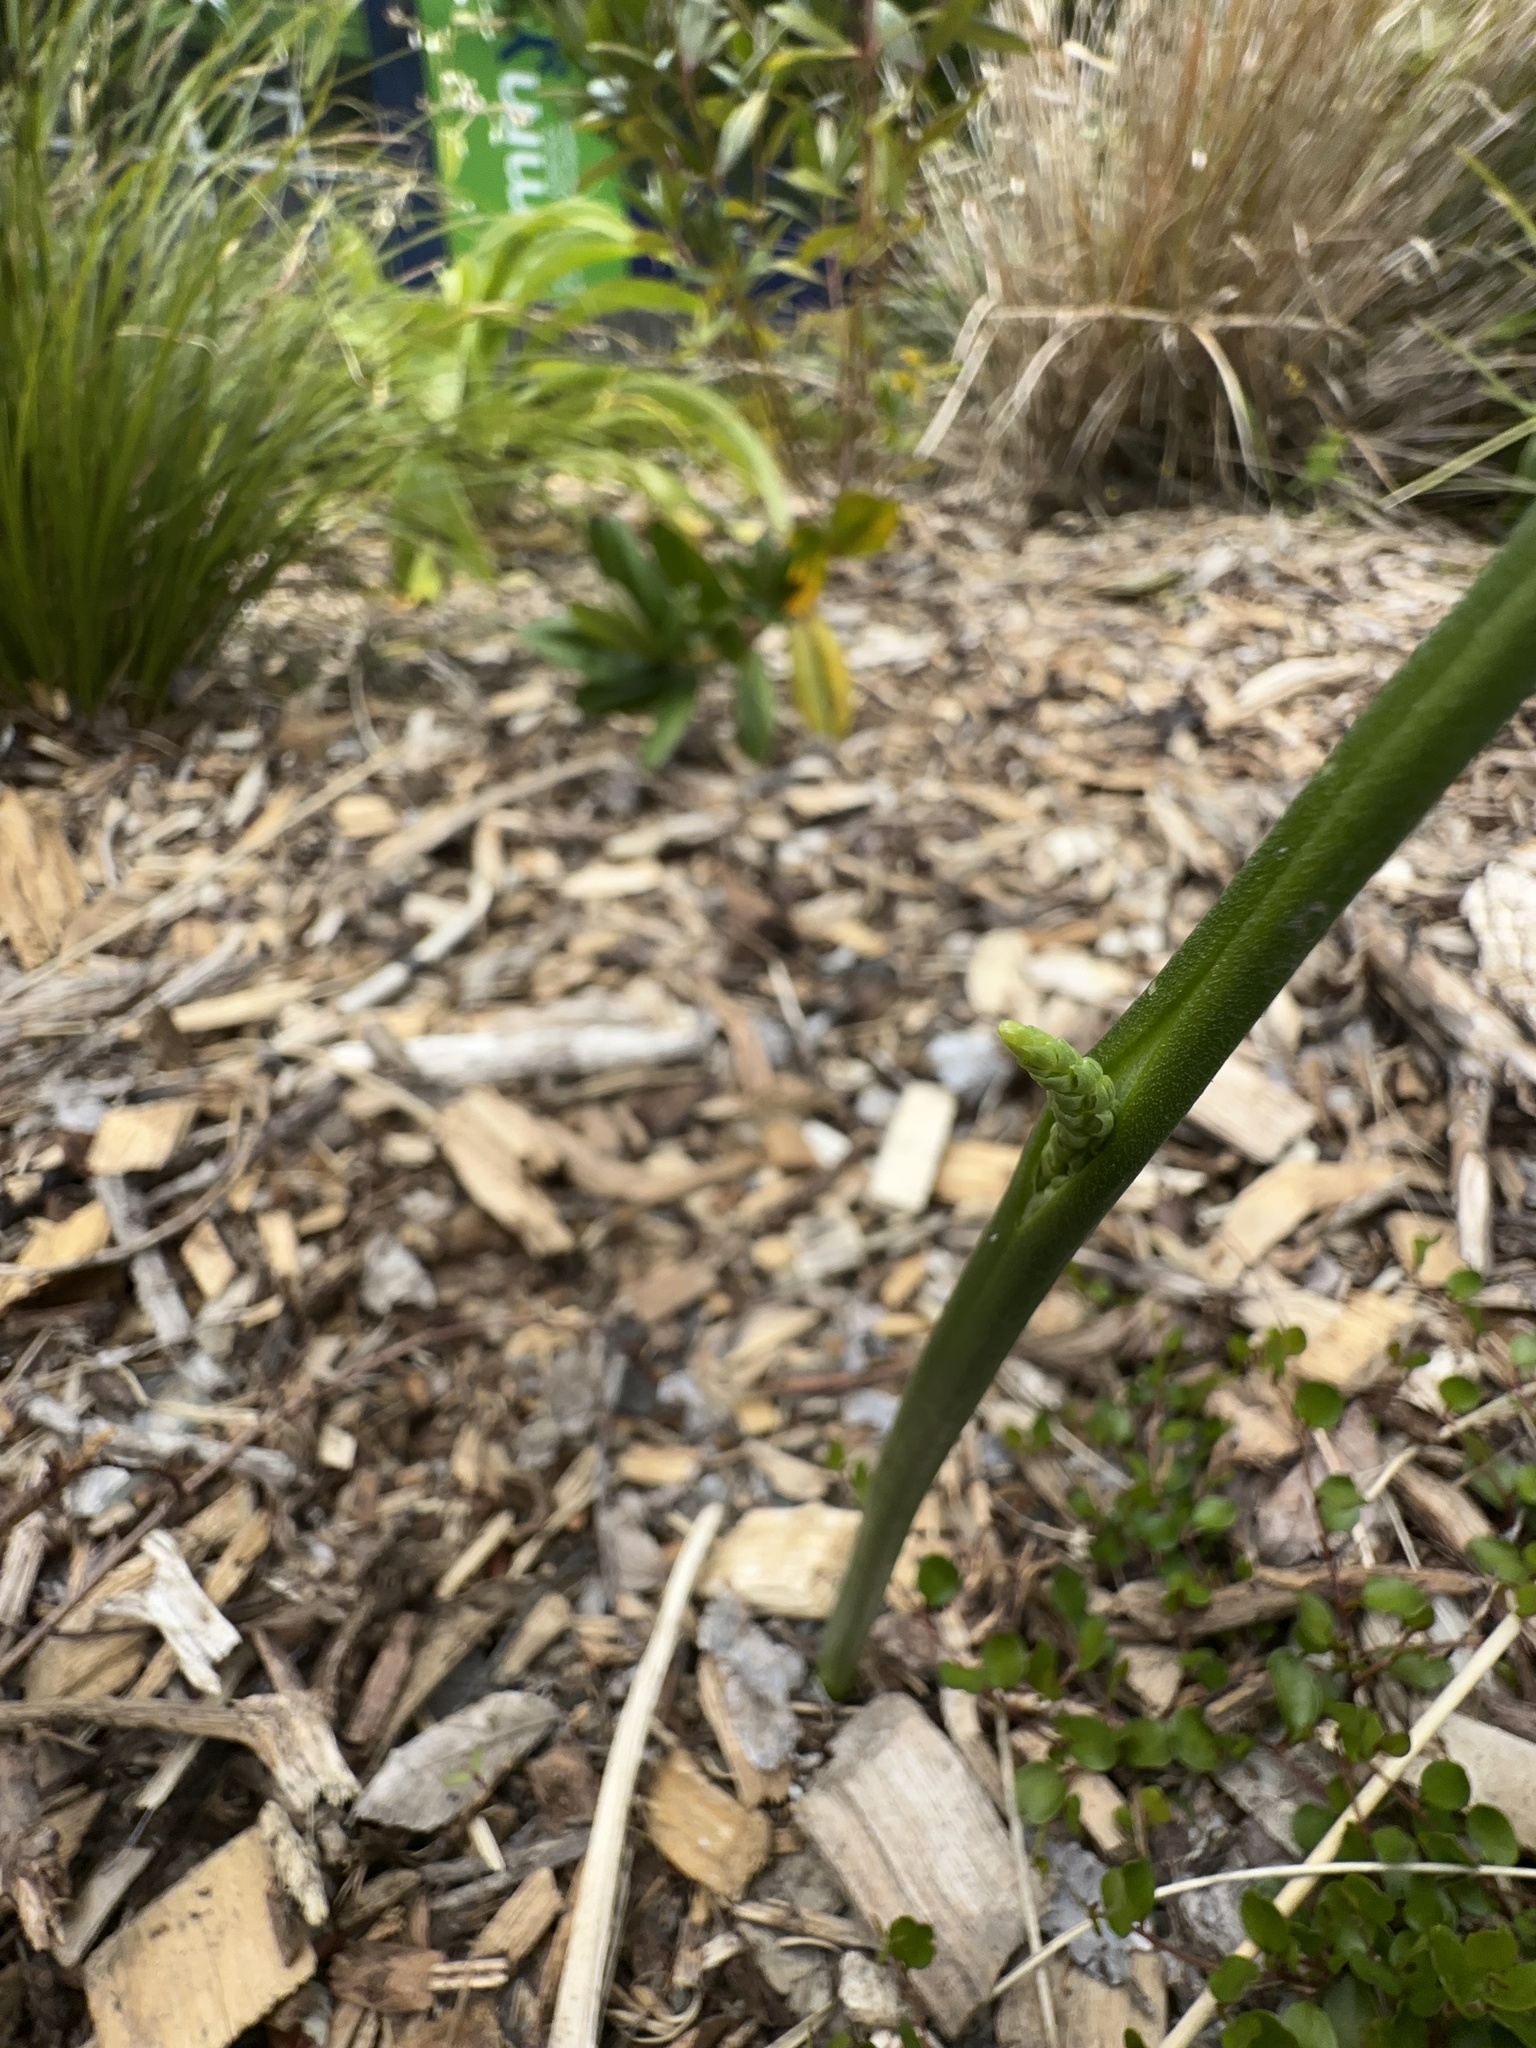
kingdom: Plantae
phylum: Tracheophyta
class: Liliopsida
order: Asparagales
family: Orchidaceae
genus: Microtis
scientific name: Microtis unifolia
